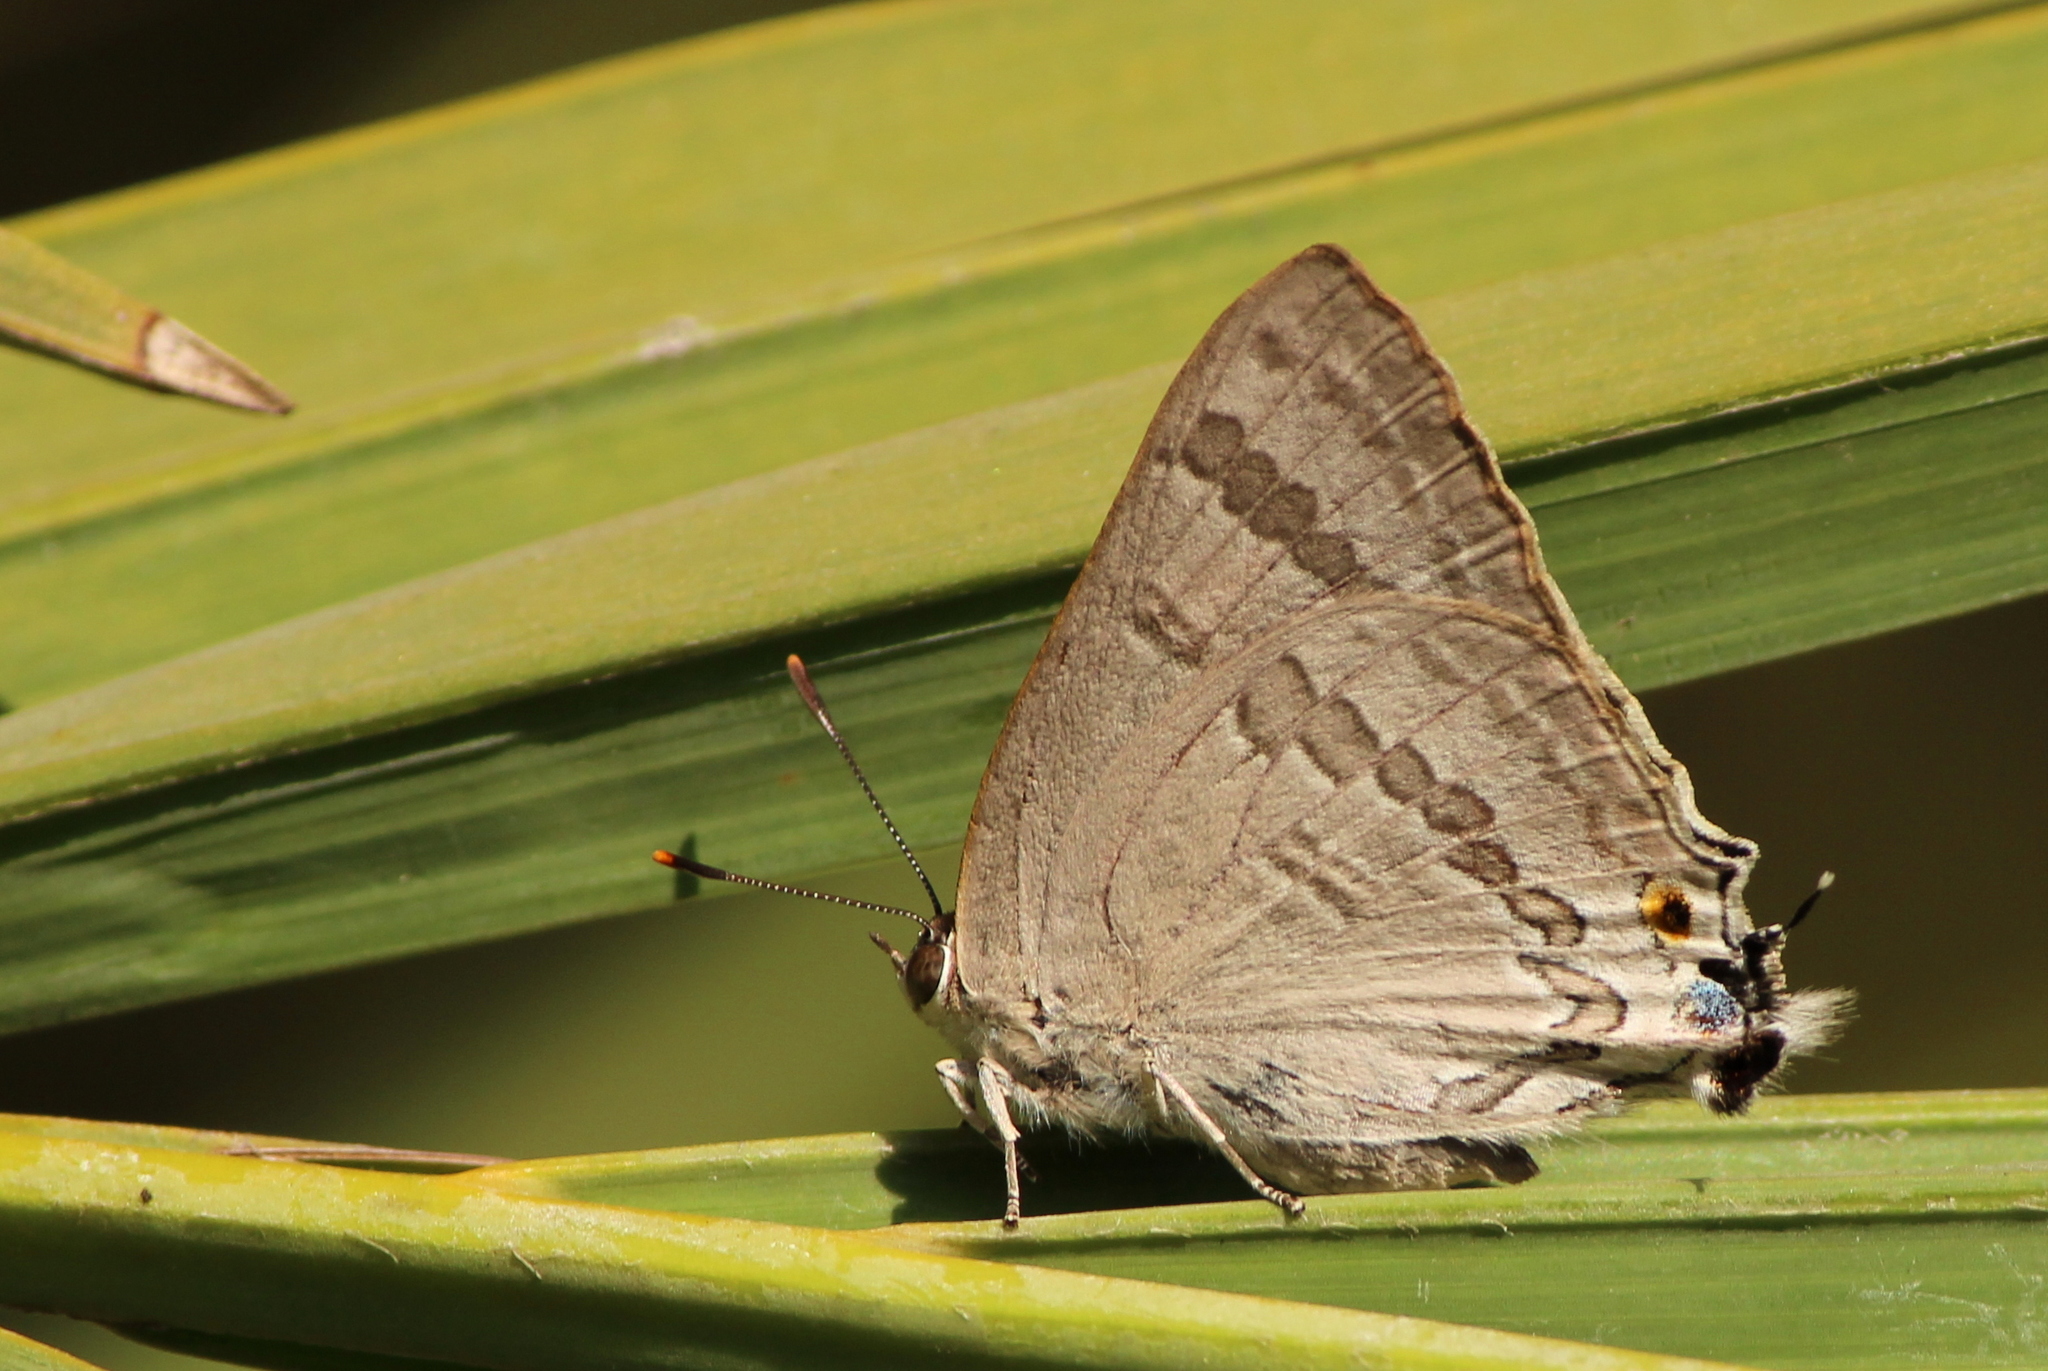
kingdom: Animalia
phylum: Arthropoda
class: Insecta
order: Lepidoptera
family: Lycaenidae
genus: Deudorix
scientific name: Deudorix
